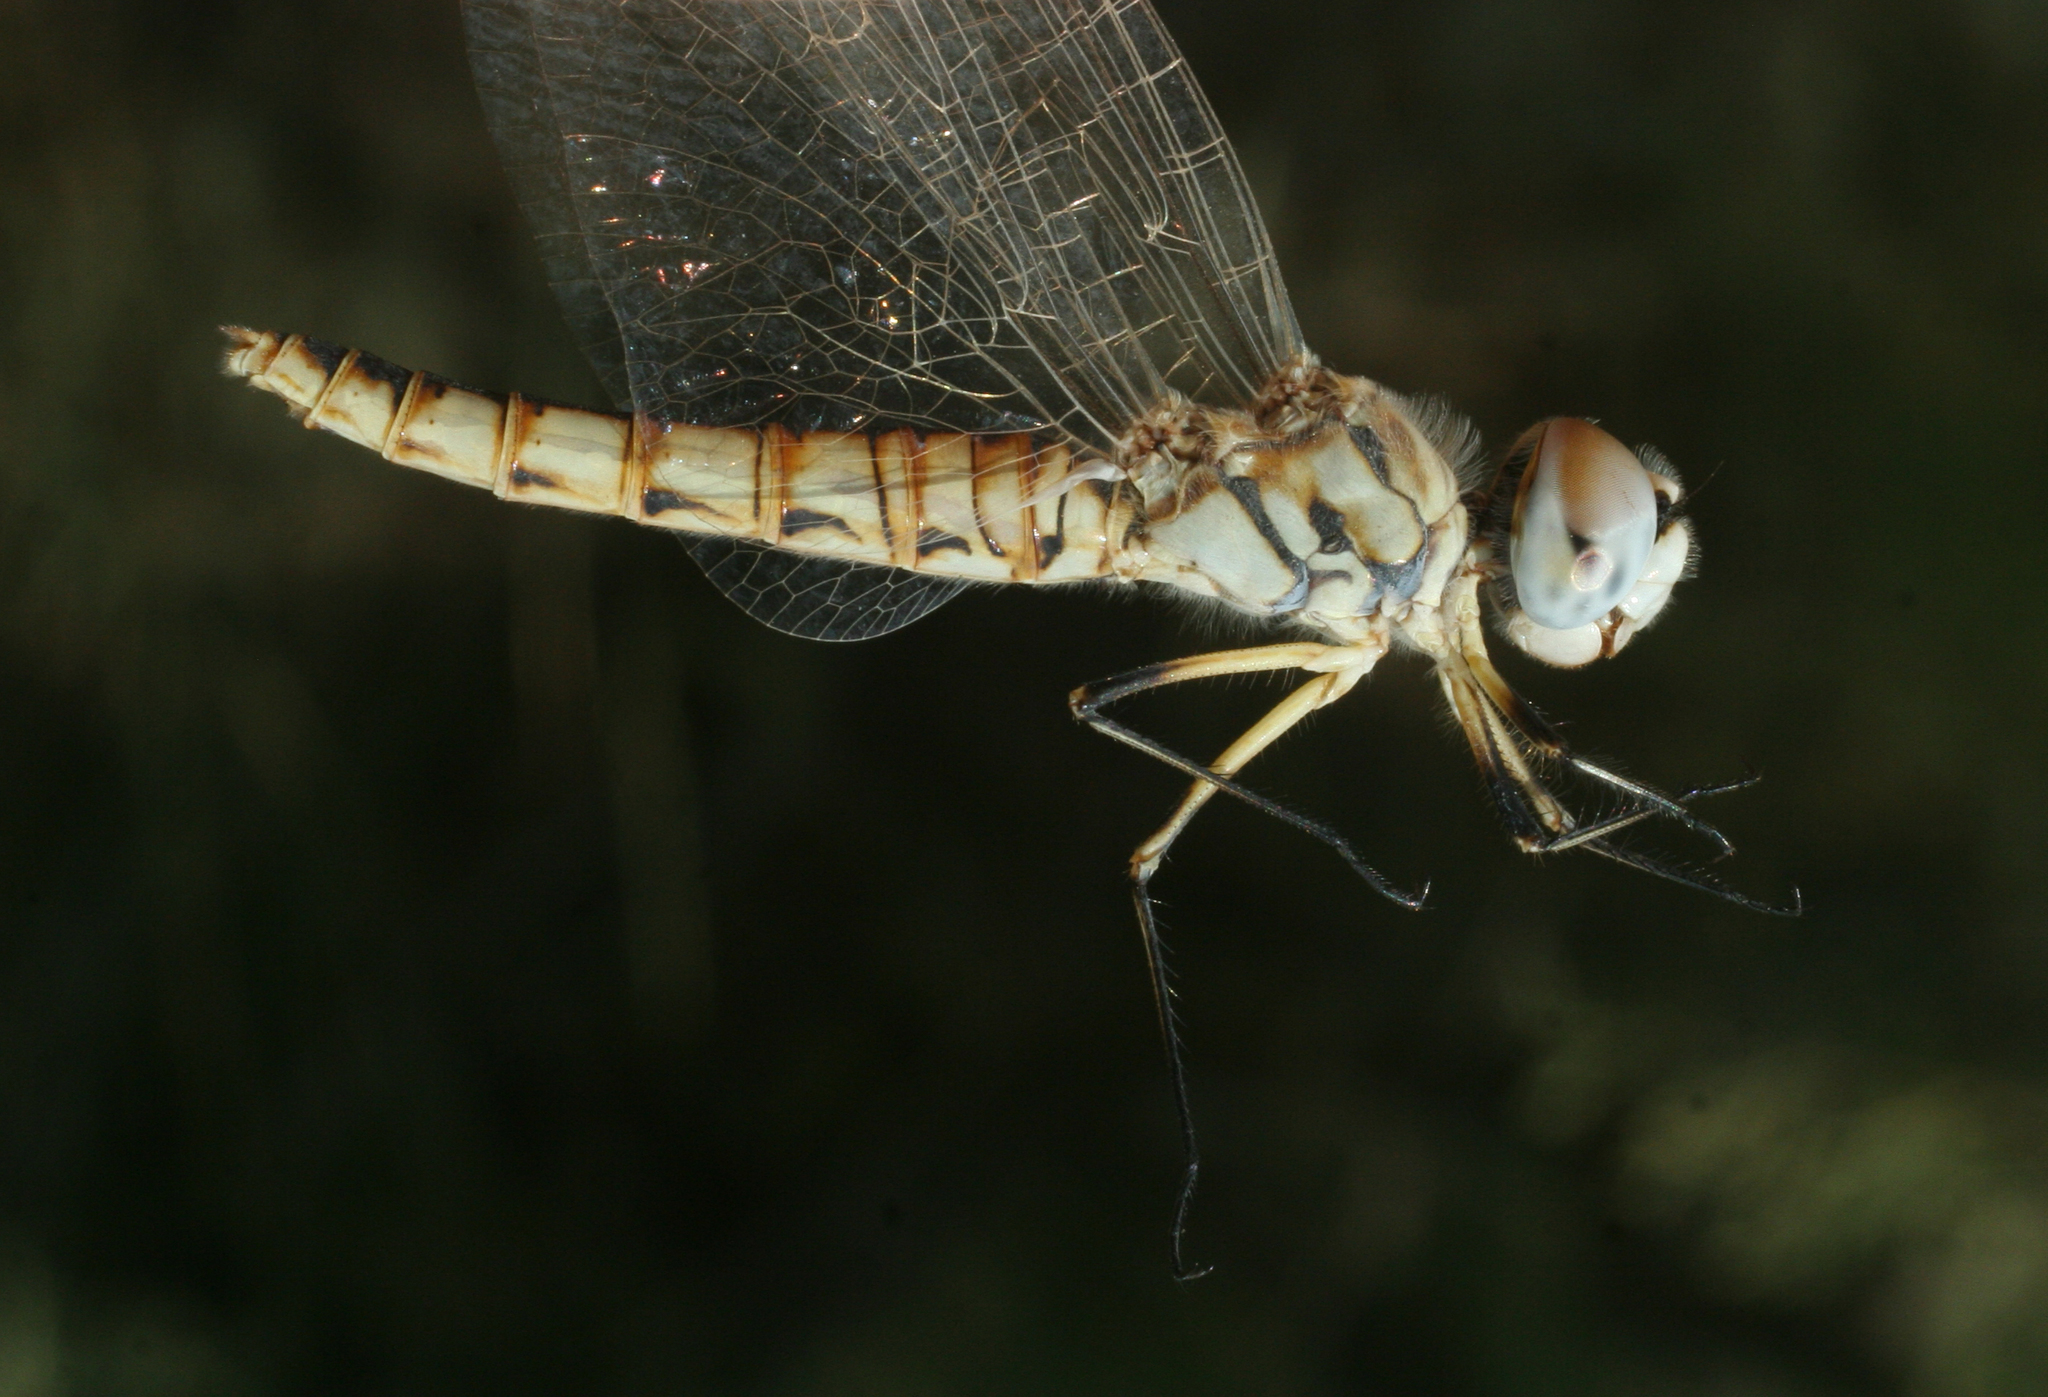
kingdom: Animalia
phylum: Arthropoda
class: Insecta
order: Odonata
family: Libellulidae
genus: Selysiothemis
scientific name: Selysiothemis nigra
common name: Black pennant
